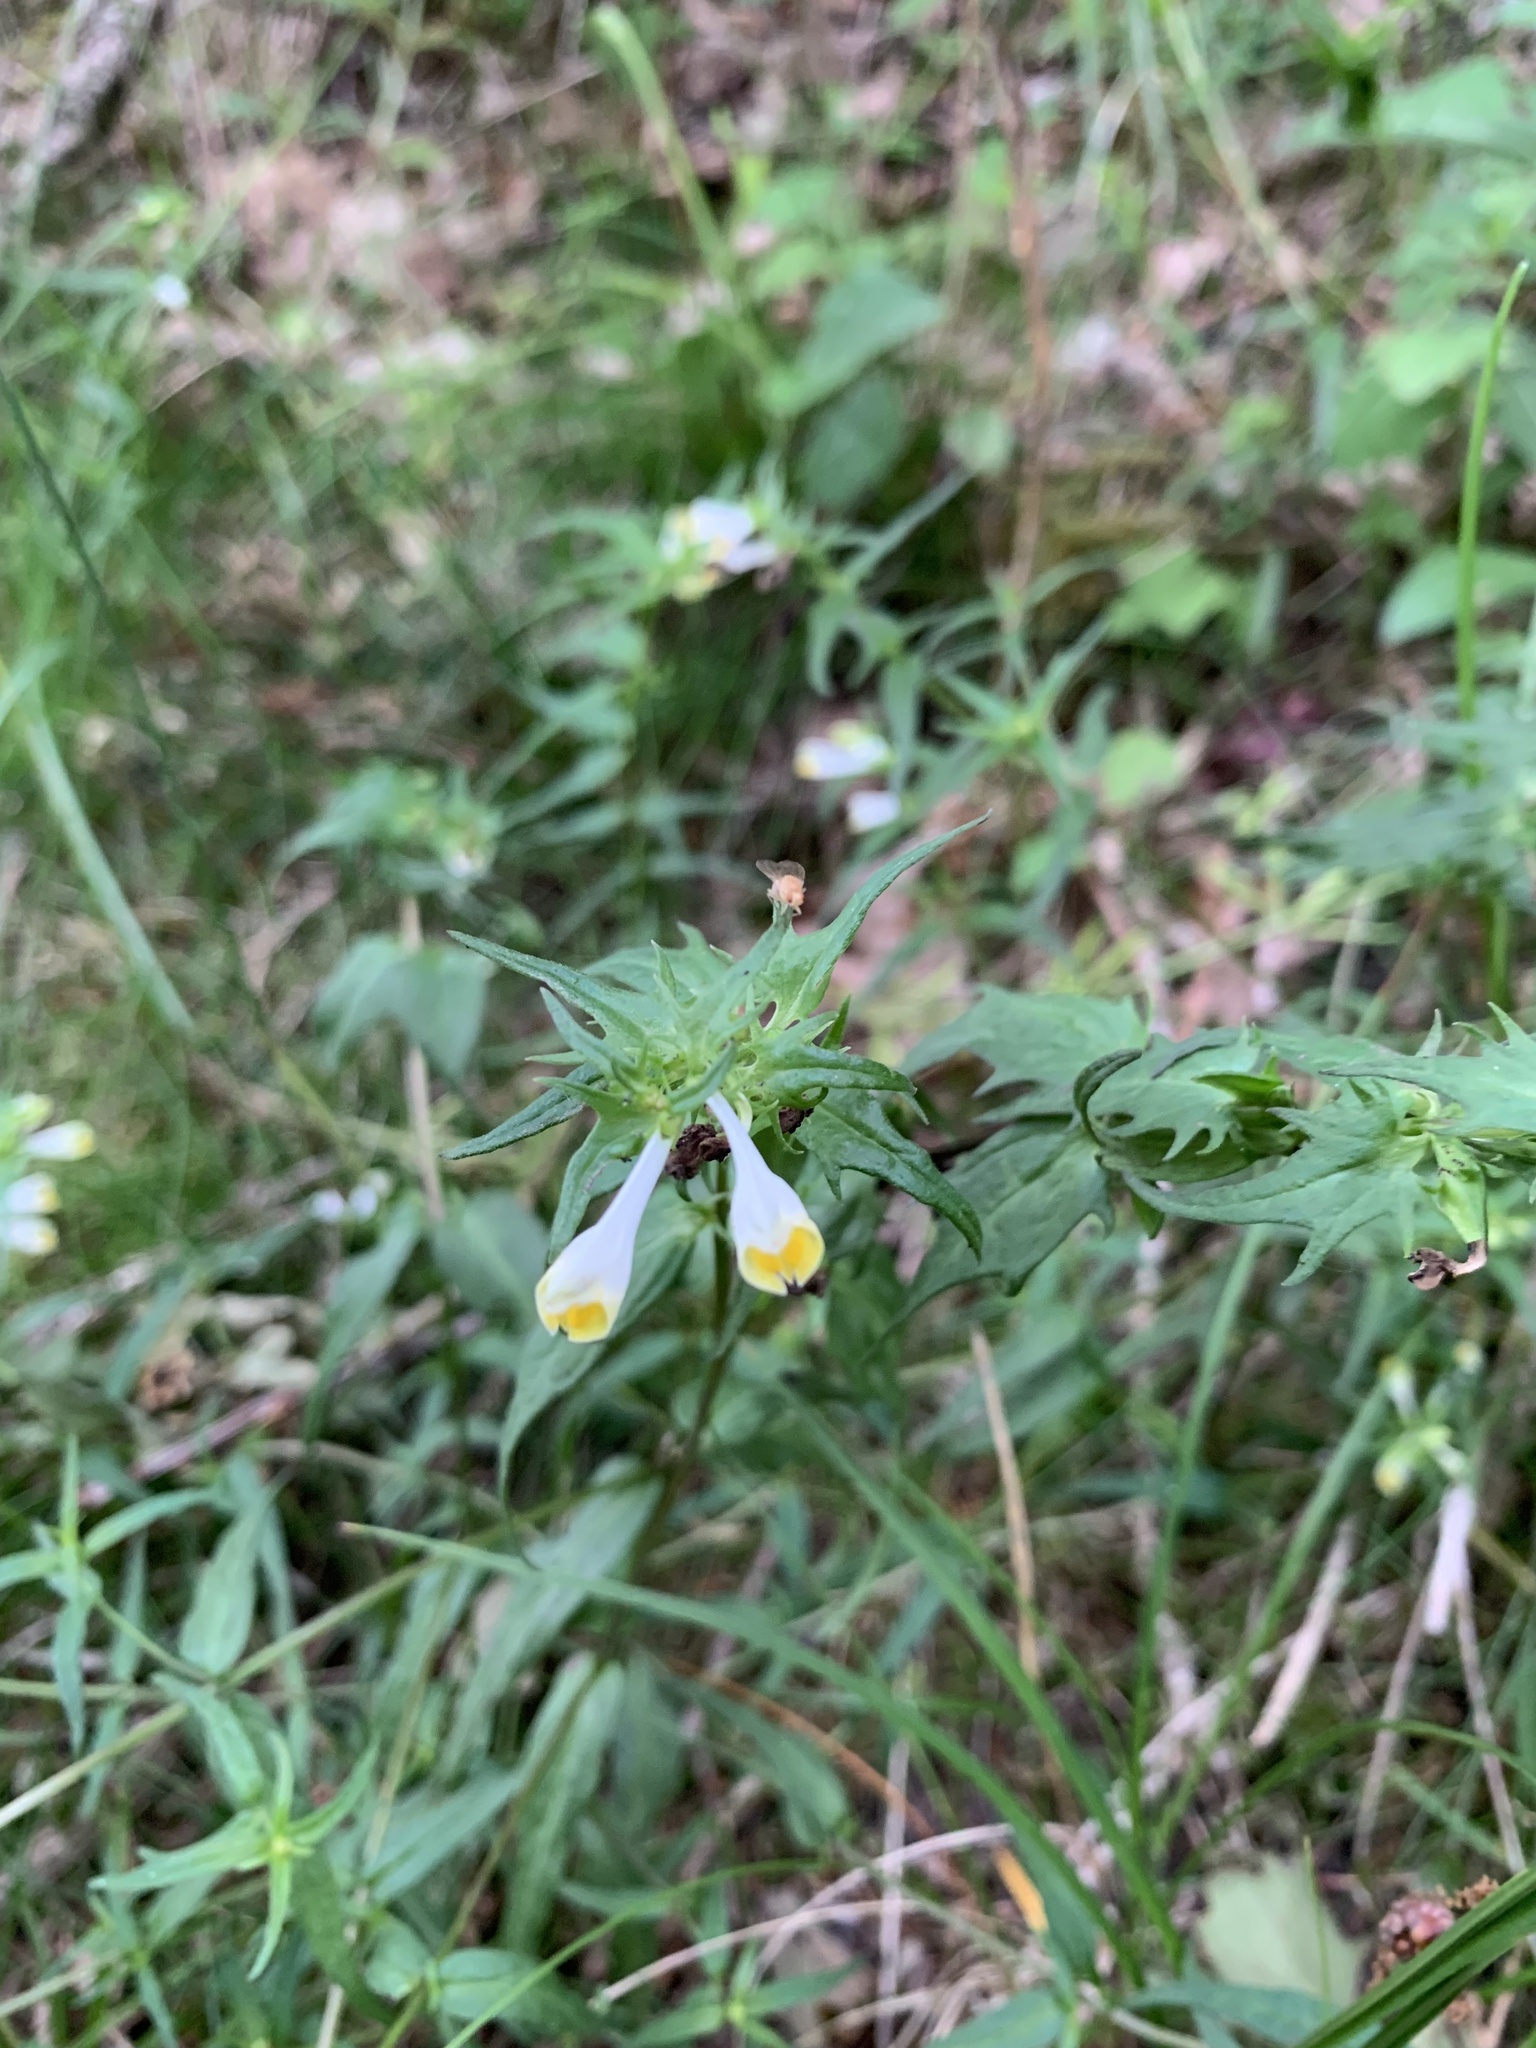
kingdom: Plantae
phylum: Tracheophyta
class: Magnoliopsida
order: Lamiales
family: Orobanchaceae
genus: Melampyrum
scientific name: Melampyrum pratense
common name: Common cow-wheat
